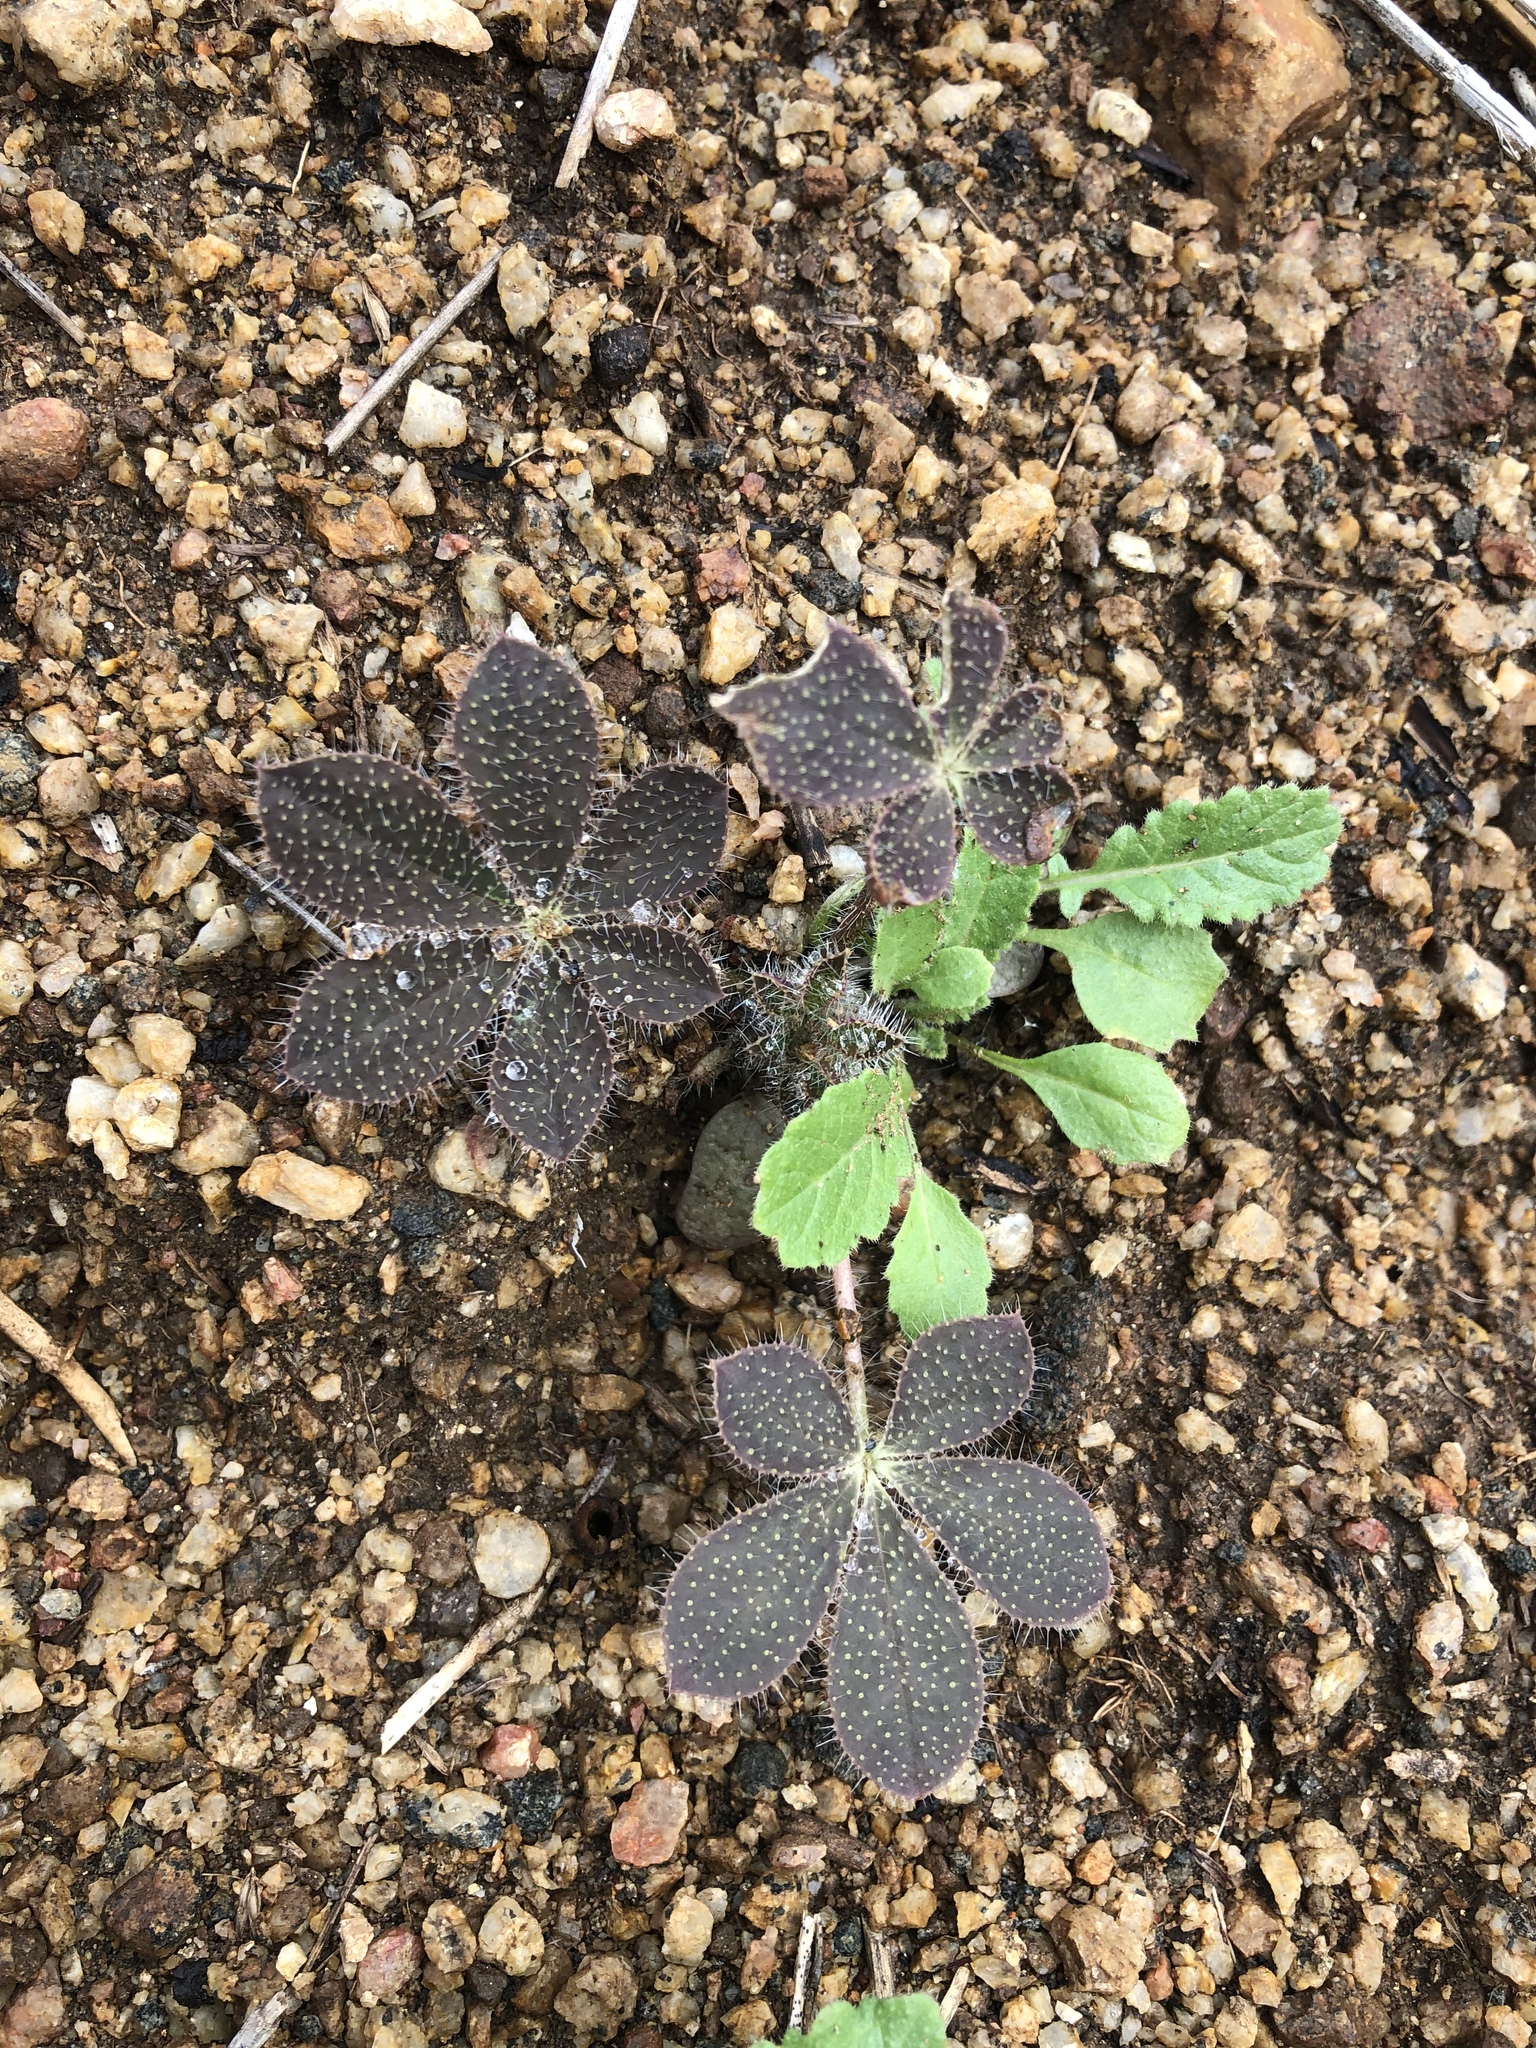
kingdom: Plantae
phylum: Tracheophyta
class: Magnoliopsida
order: Fabales
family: Fabaceae
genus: Lupinus
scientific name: Lupinus hirsutissimus
